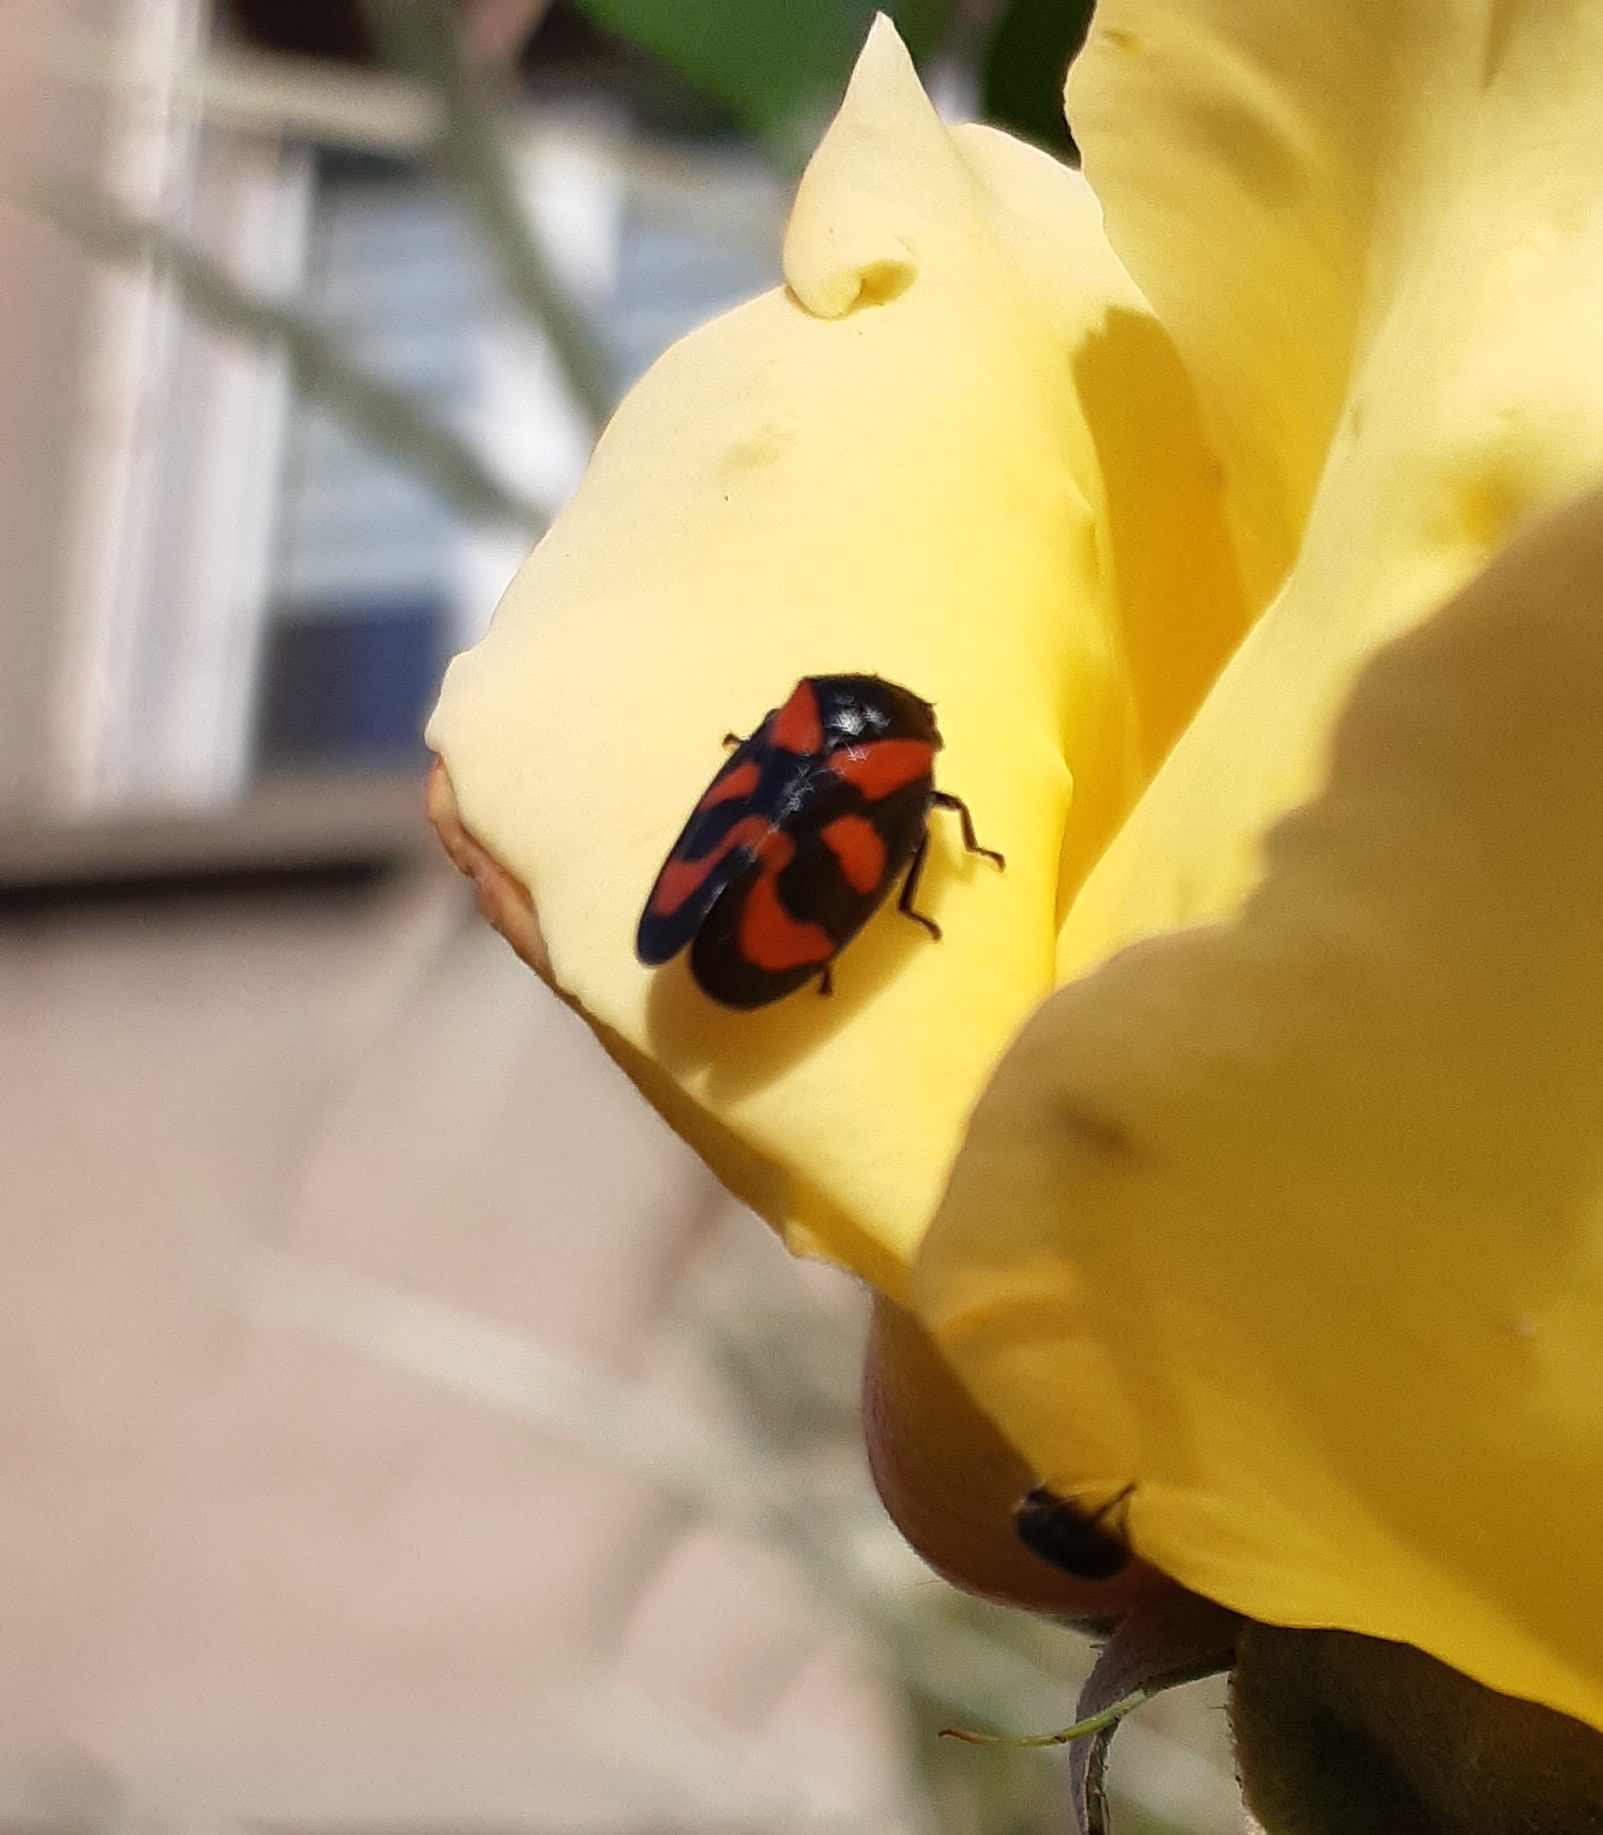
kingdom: Animalia
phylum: Arthropoda
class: Insecta
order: Hemiptera
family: Cercopidae
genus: Cercopis
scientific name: Cercopis vulnerata
